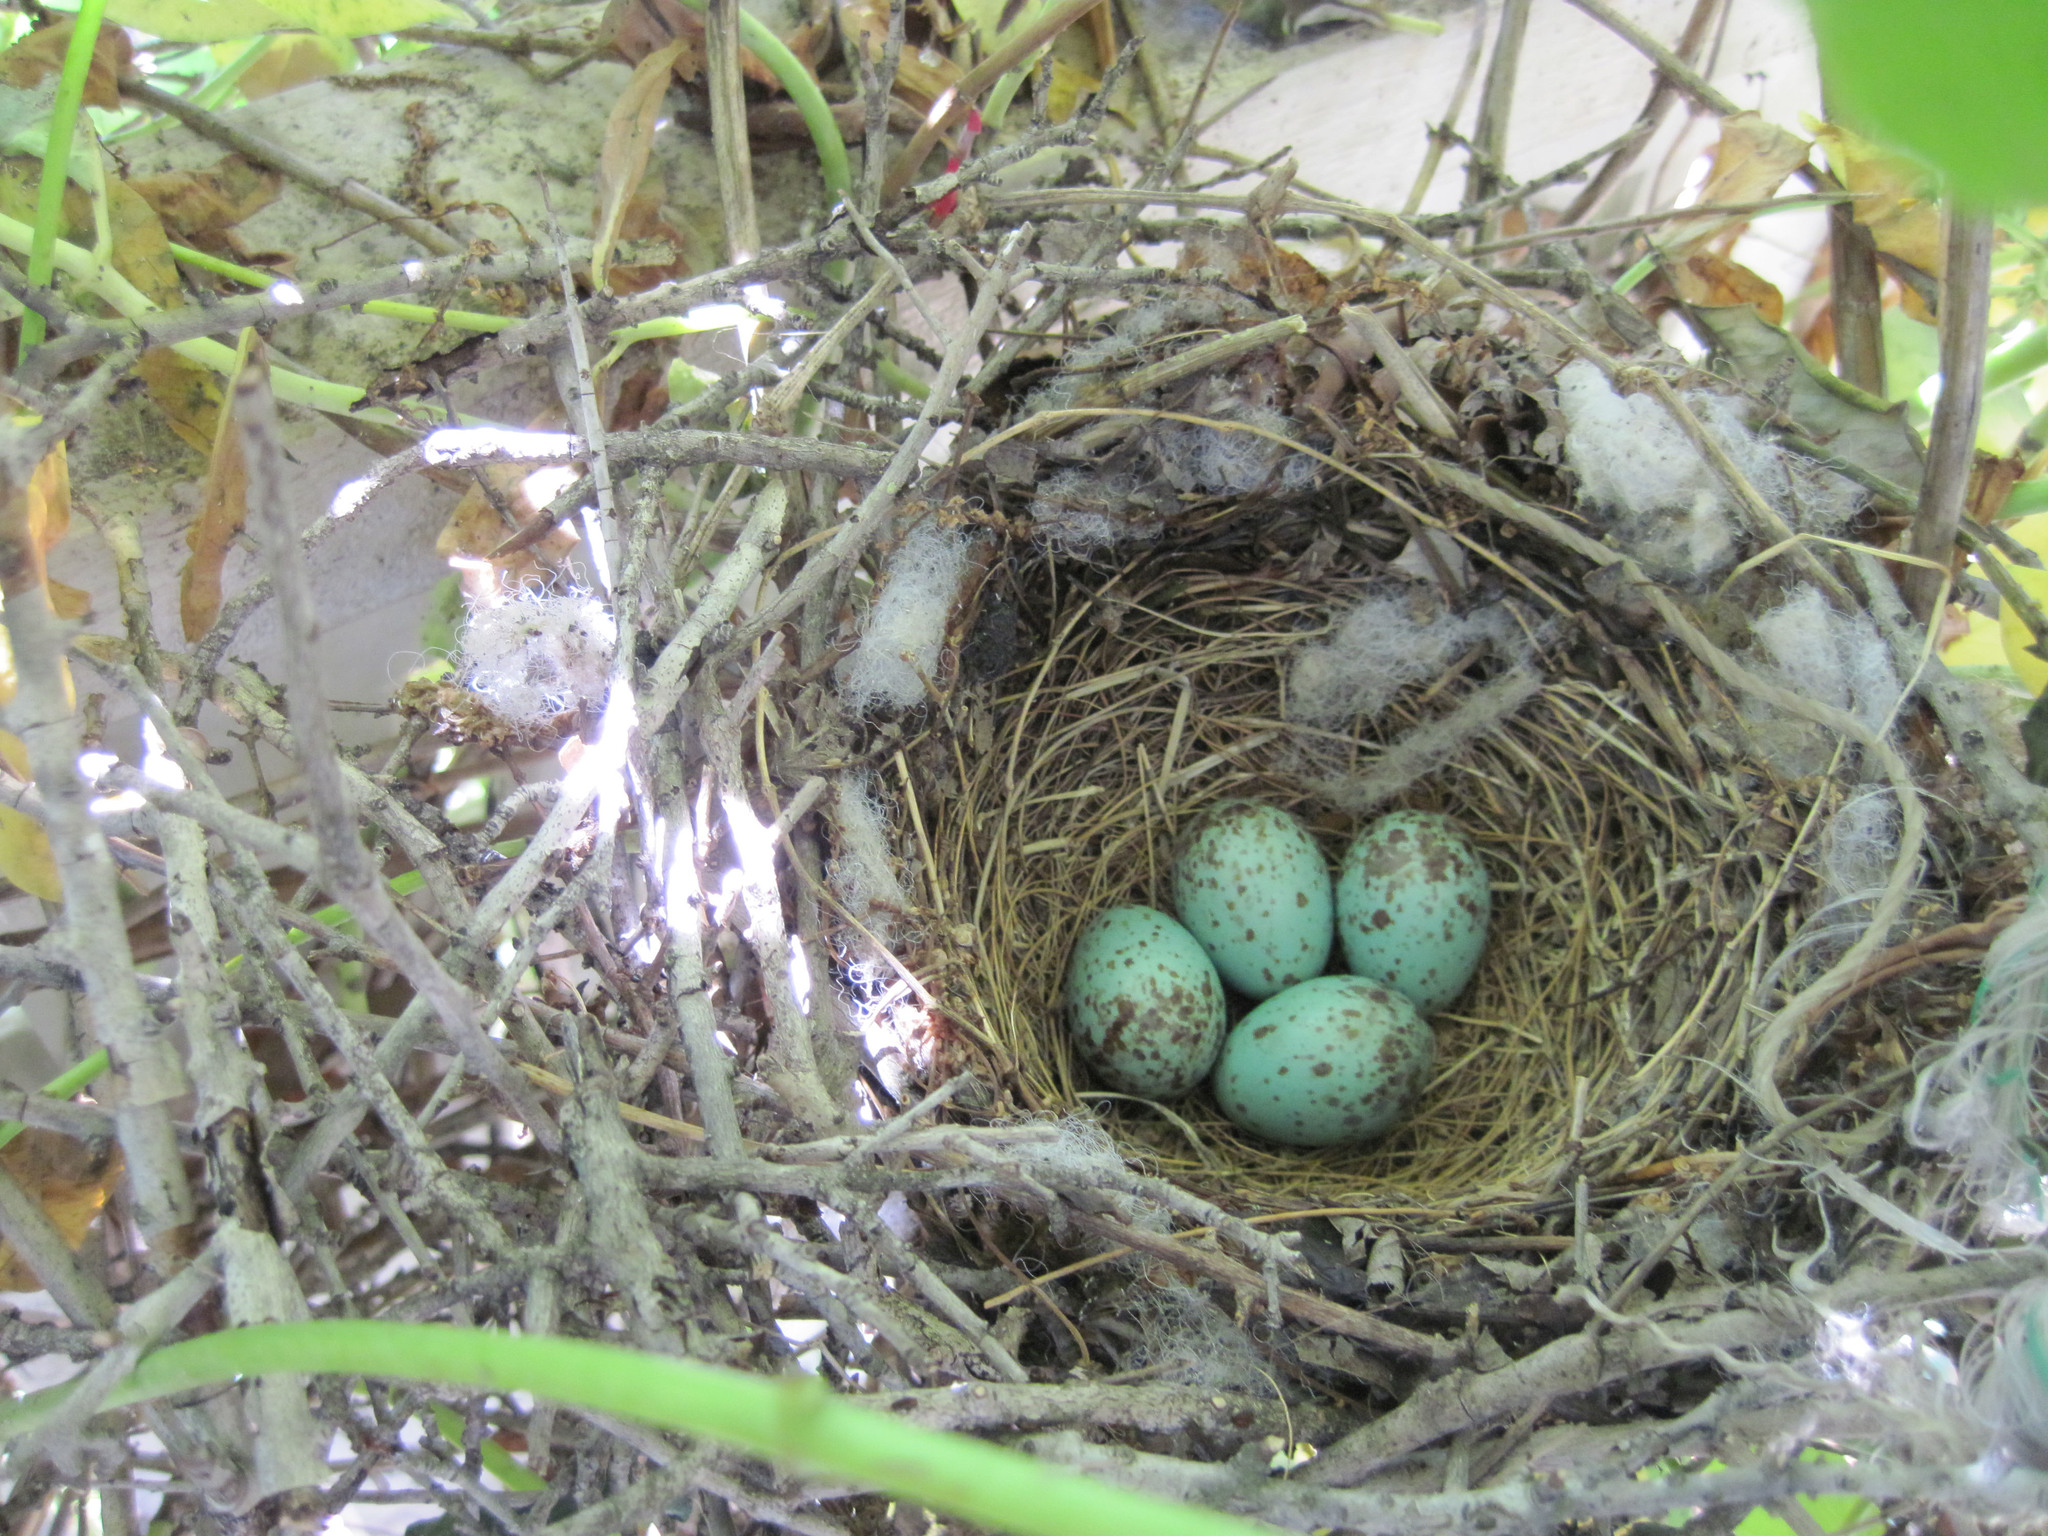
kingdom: Animalia
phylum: Chordata
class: Aves
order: Passeriformes
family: Mimidae
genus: Mimus
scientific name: Mimus polyglottos
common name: Northern mockingbird
